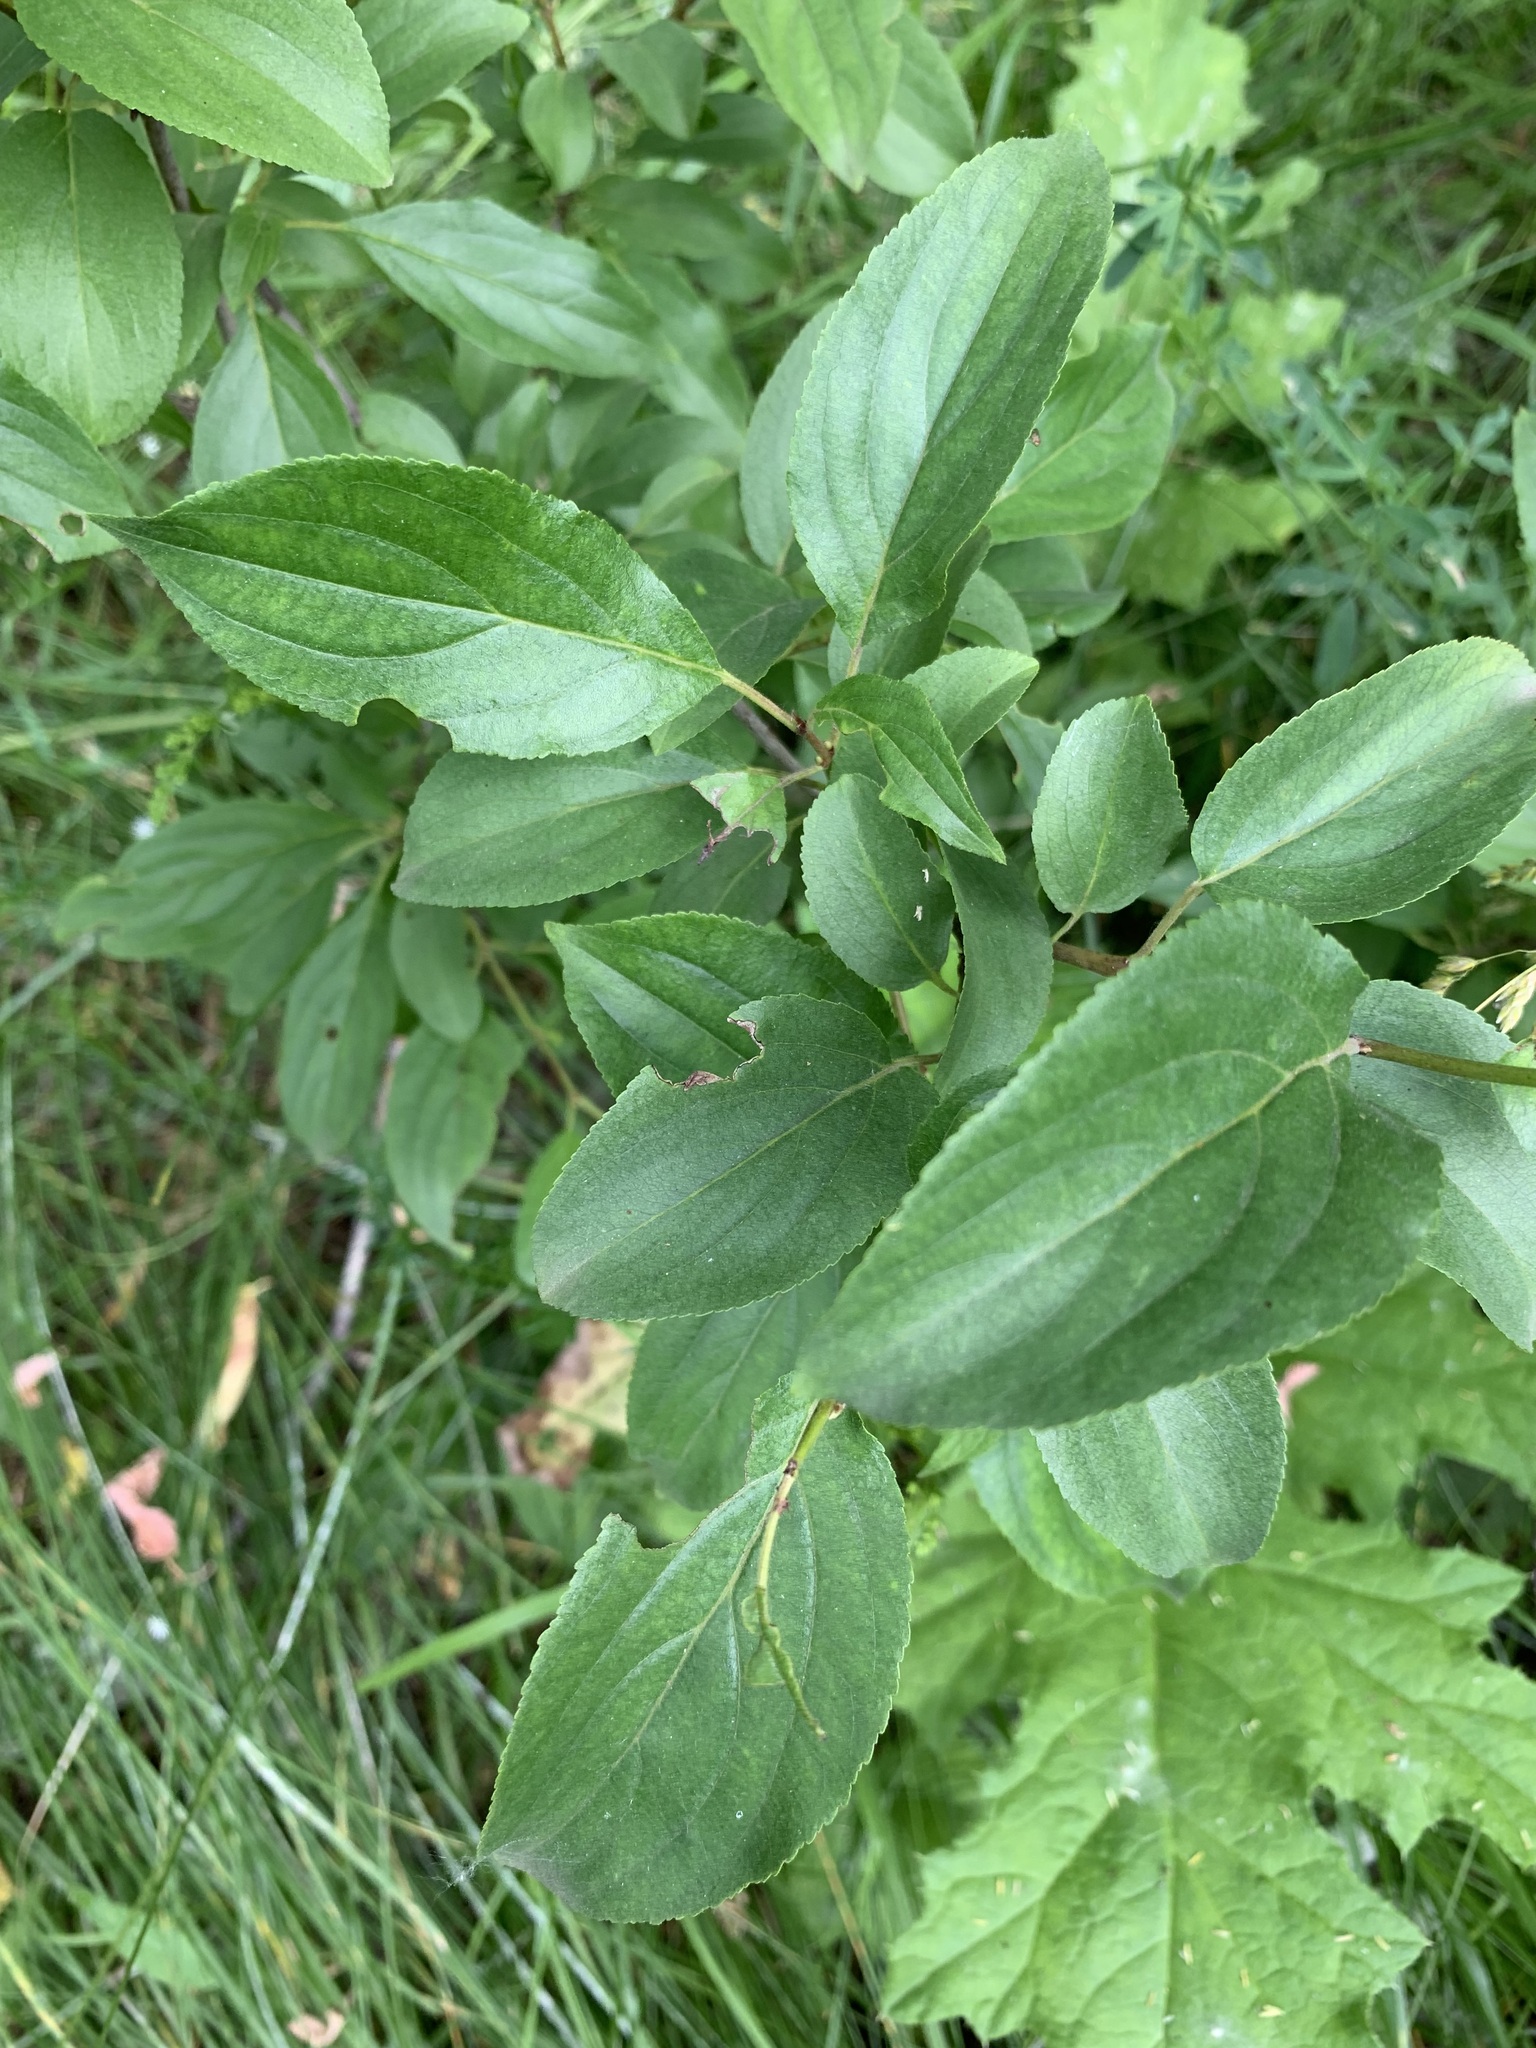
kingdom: Plantae
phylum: Tracheophyta
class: Magnoliopsida
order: Rosales
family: Rhamnaceae
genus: Rhamnus
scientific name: Rhamnus cathartica
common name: Common buckthorn
